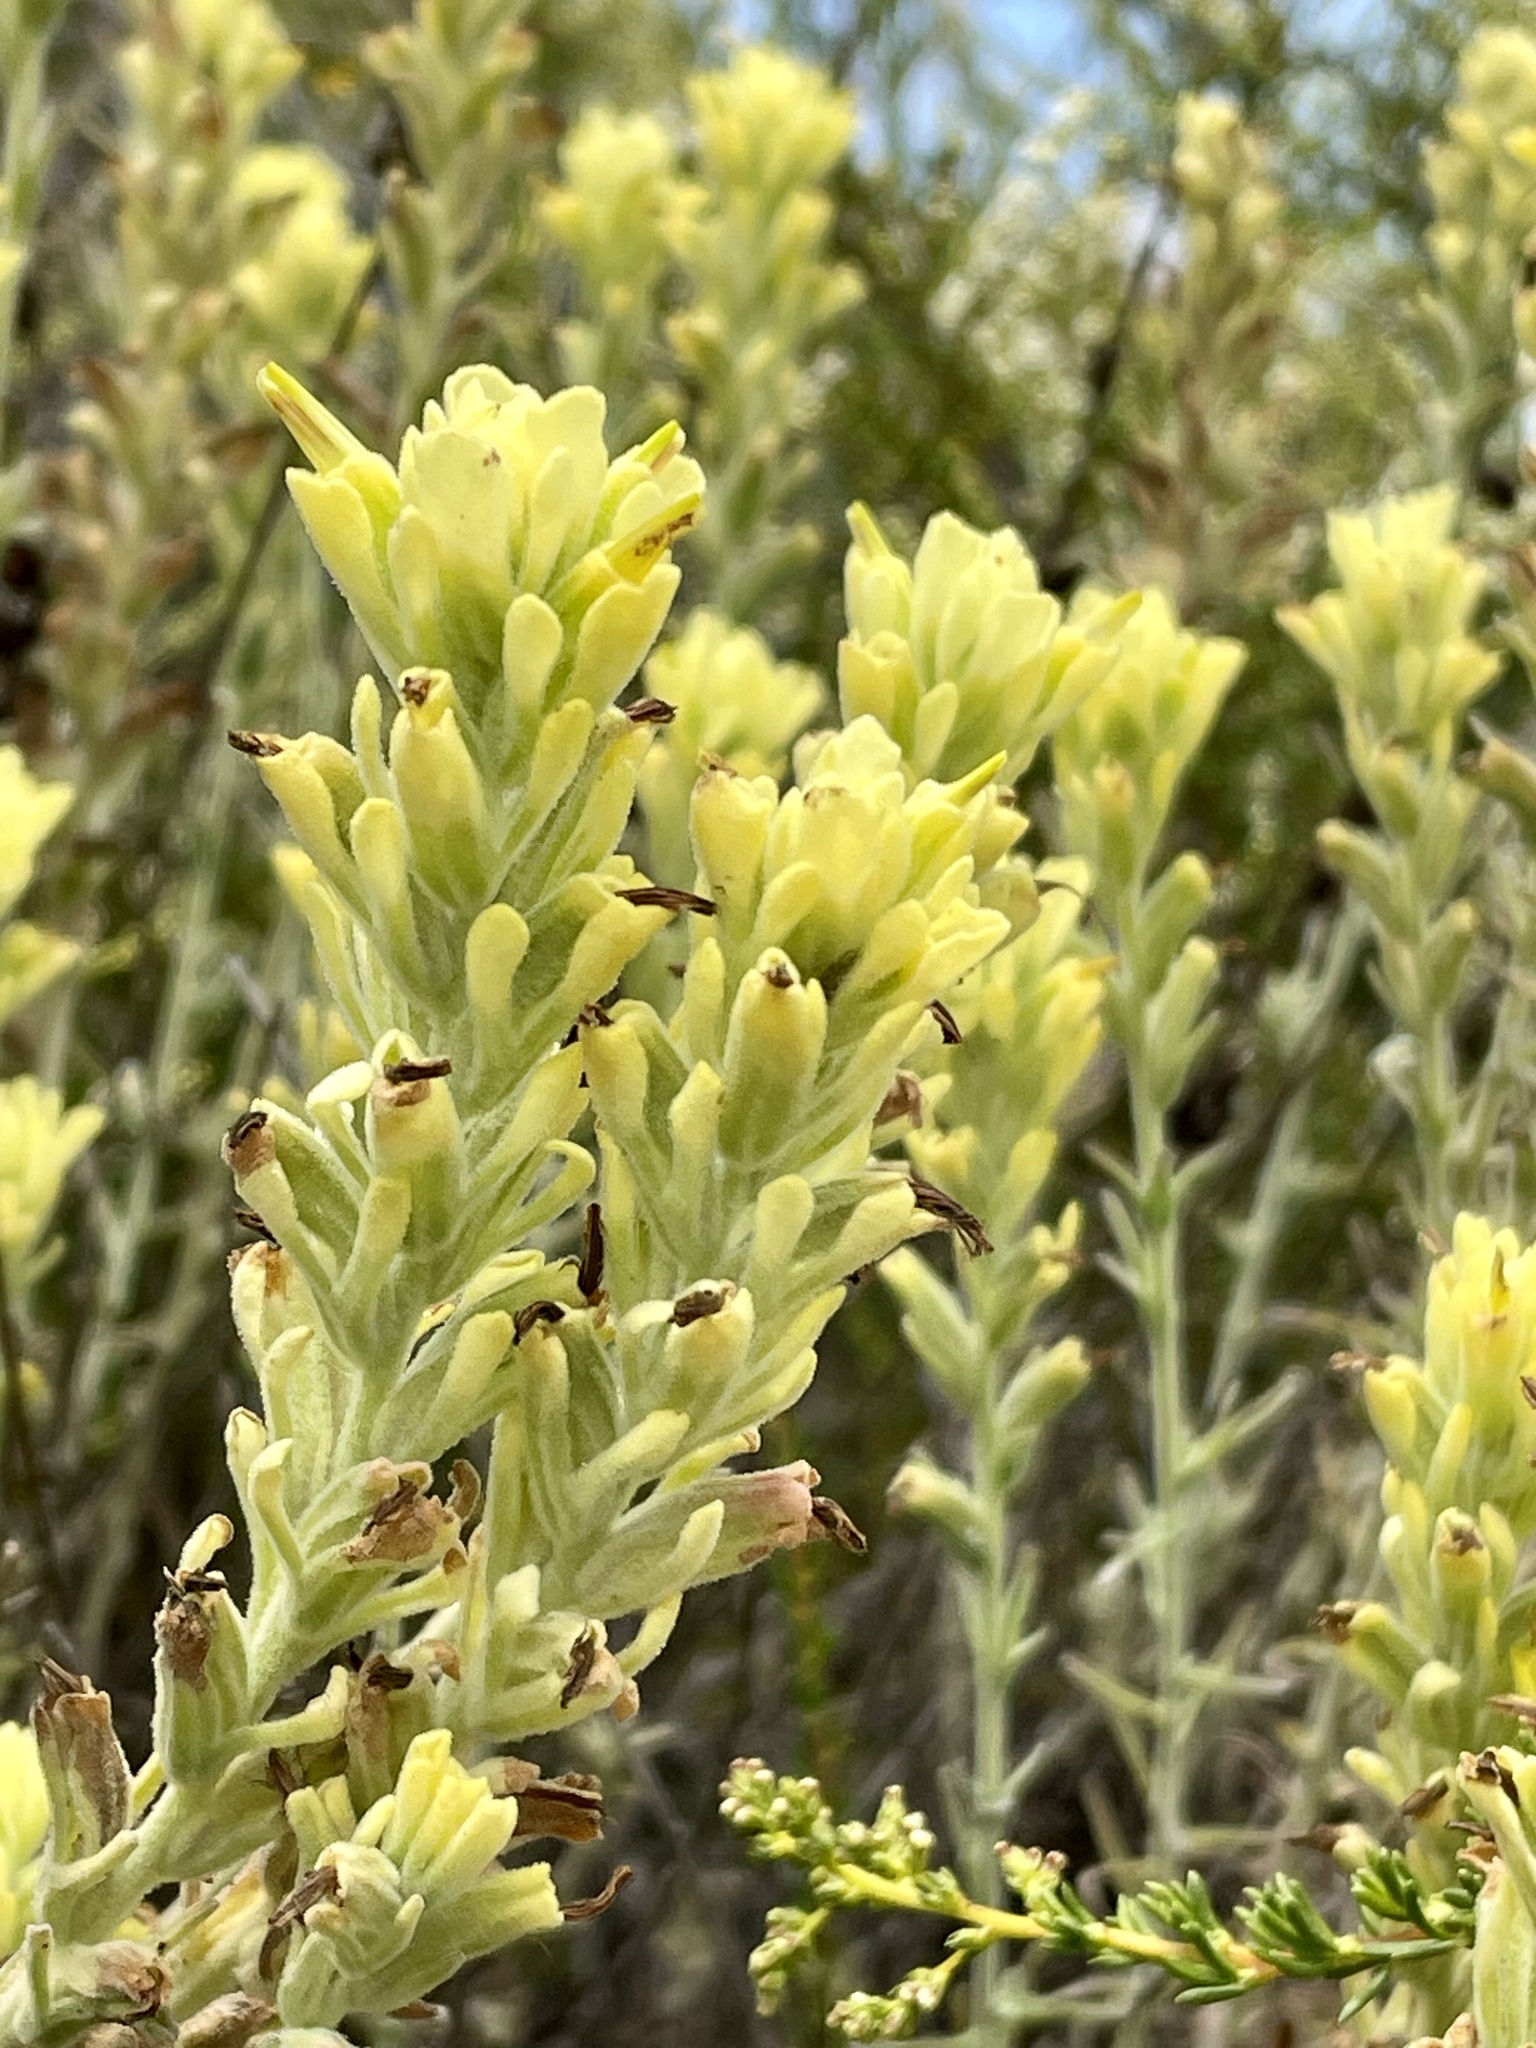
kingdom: Plantae
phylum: Tracheophyta
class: Magnoliopsida
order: Lamiales
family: Orobanchaceae
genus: Castilleja
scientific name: Castilleja foliolosa
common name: Woolly indian paintbrush
